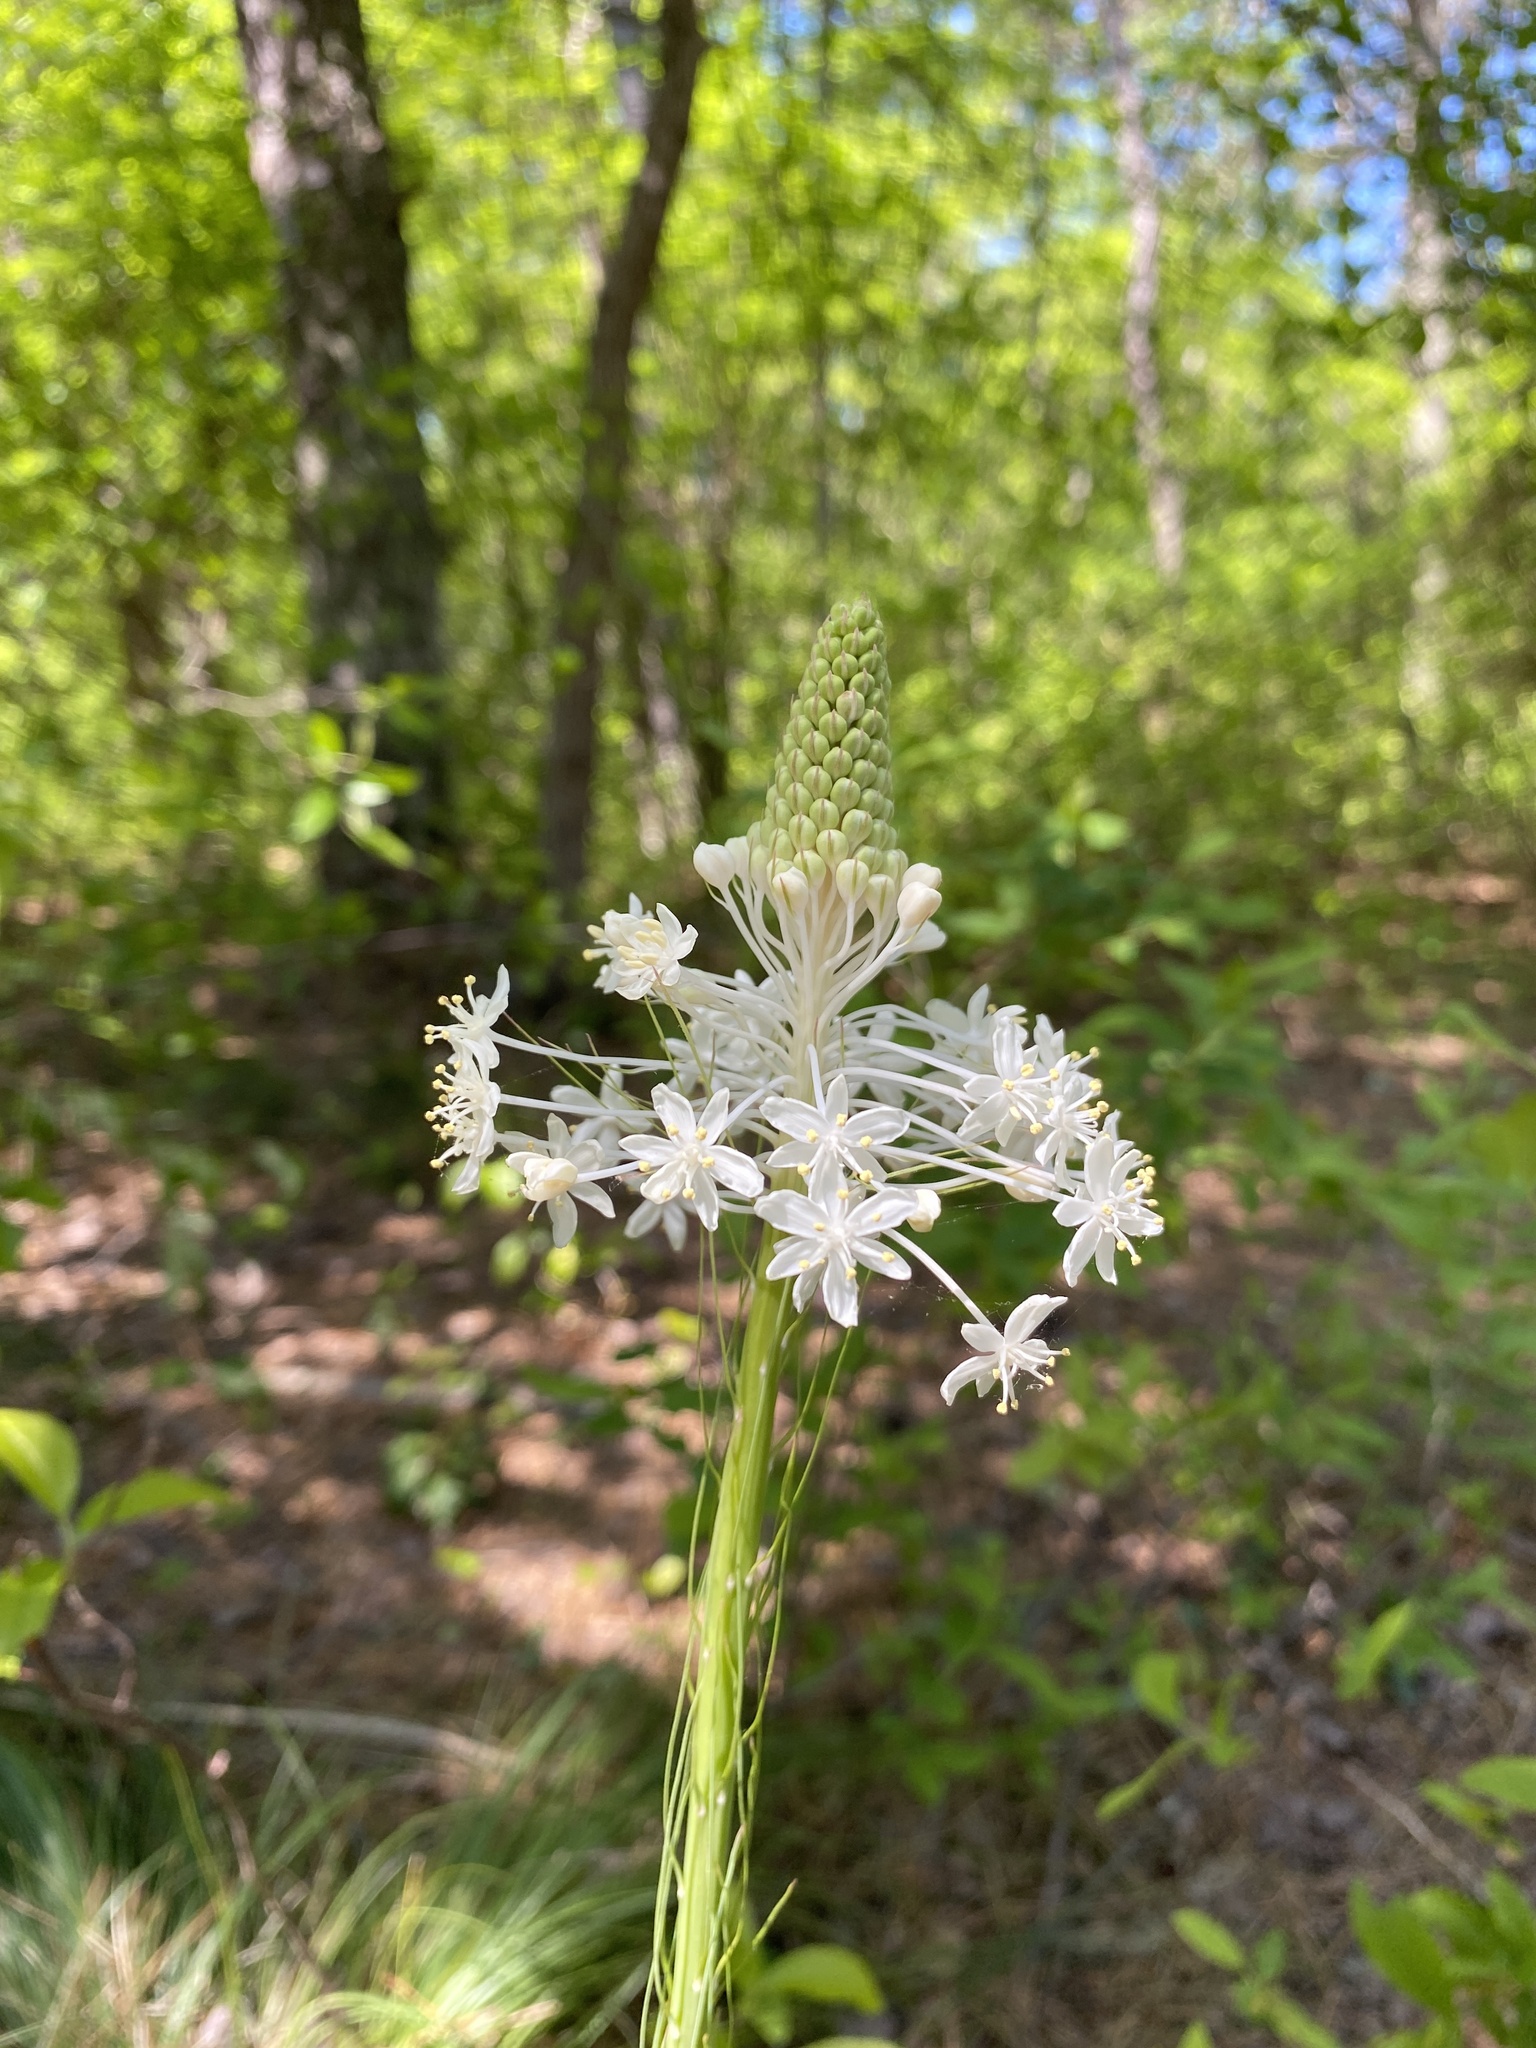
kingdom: Plantae
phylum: Tracheophyta
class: Liliopsida
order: Liliales
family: Melanthiaceae
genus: Xerophyllum
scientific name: Xerophyllum asphodeloides
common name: Mountain-asphodel
